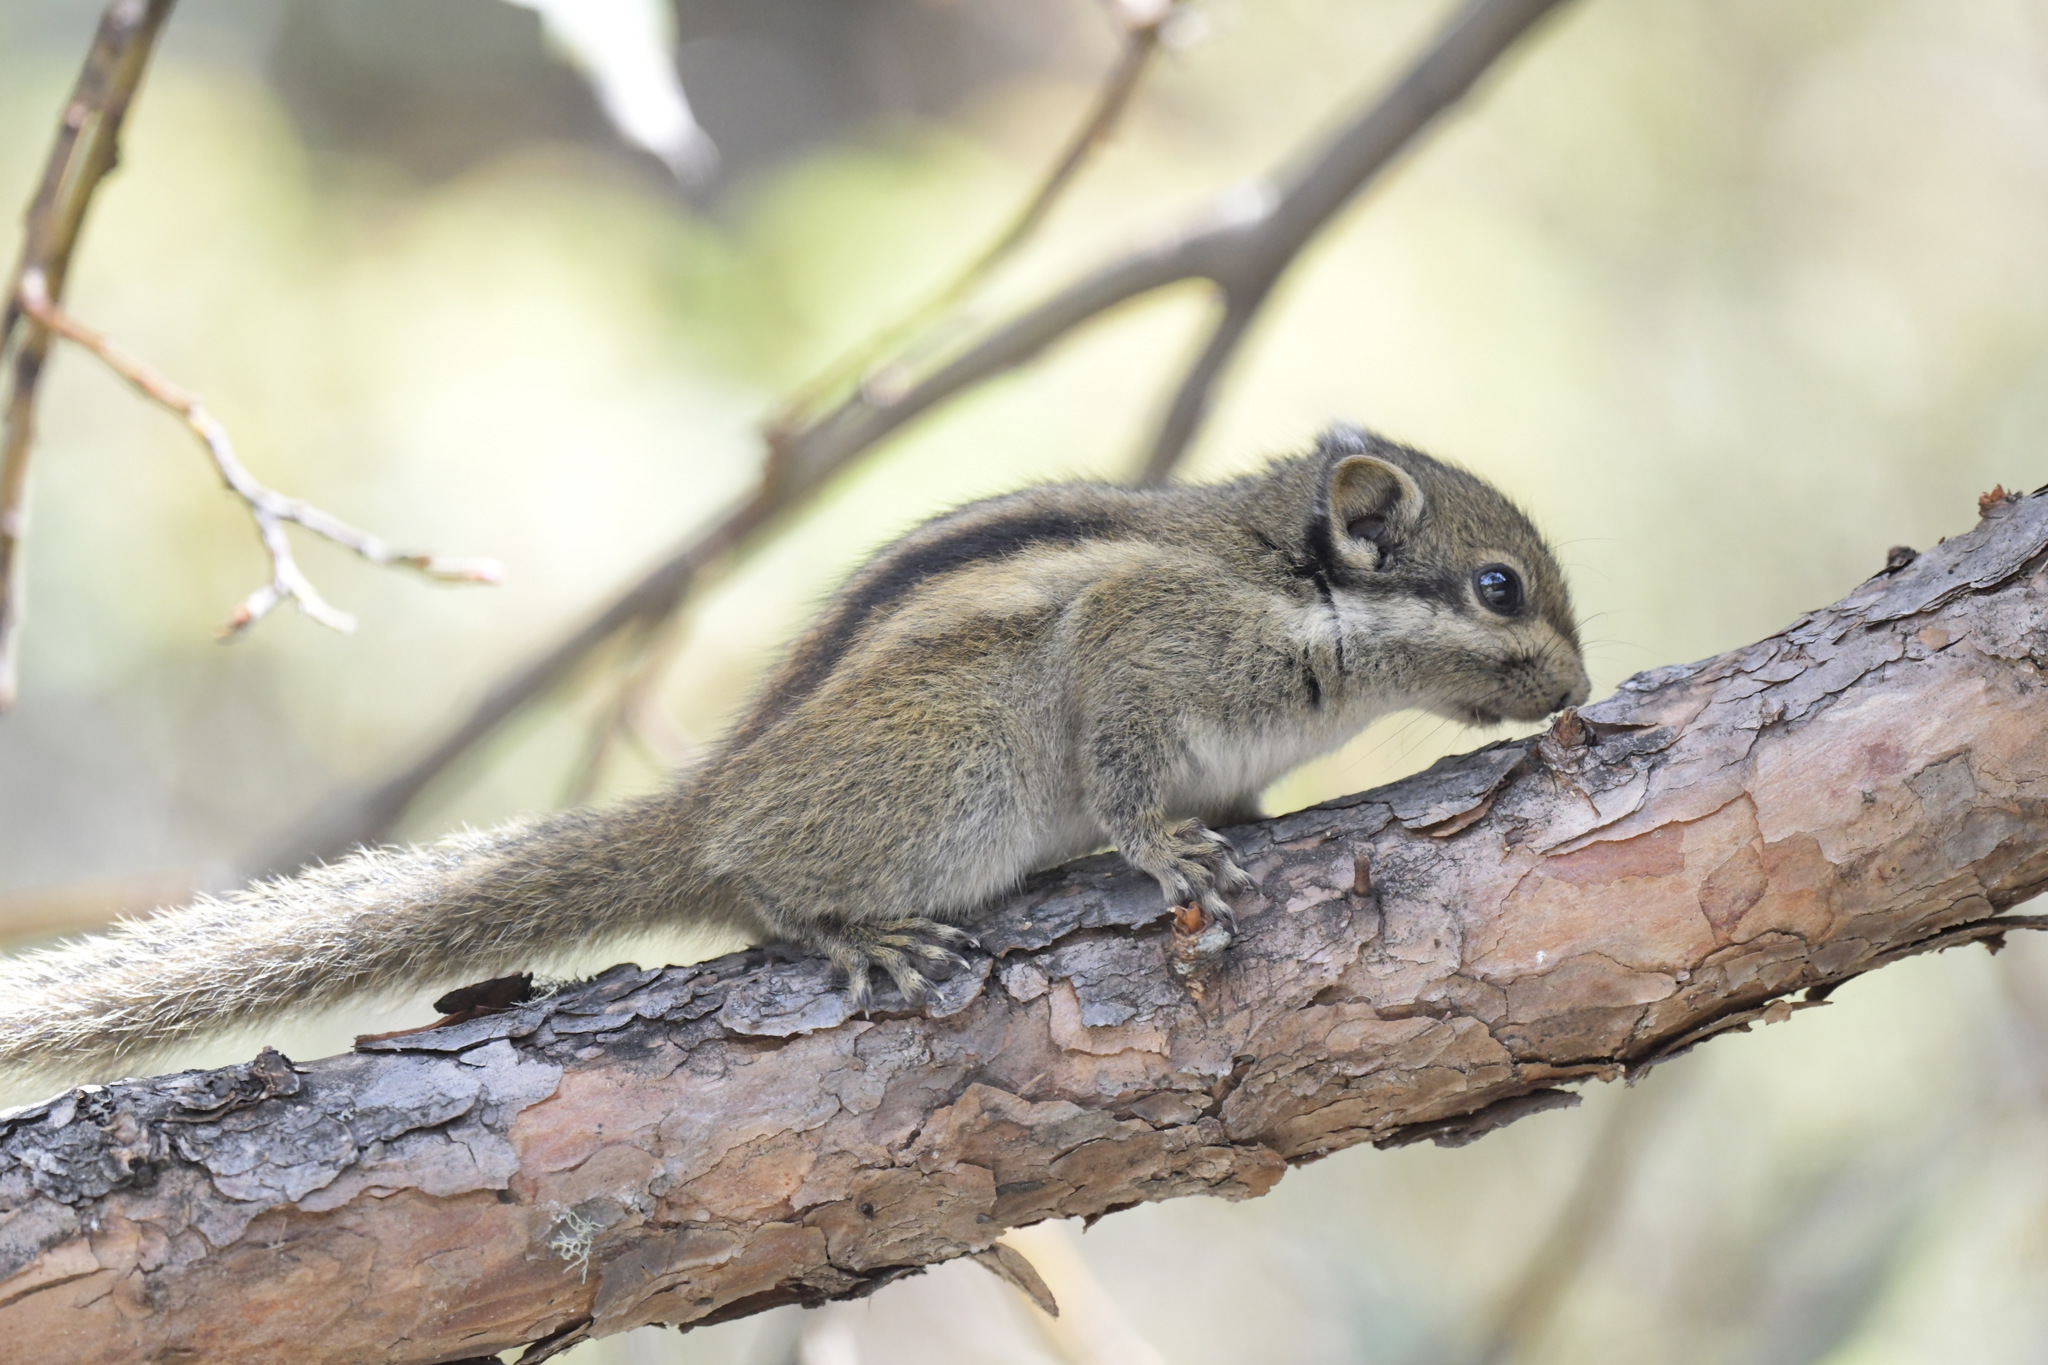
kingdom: Animalia
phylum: Chordata
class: Mammalia
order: Rodentia
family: Sciuridae
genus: Tamiops
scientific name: Tamiops swinhoei
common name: Swinhoe's striped squirrel
